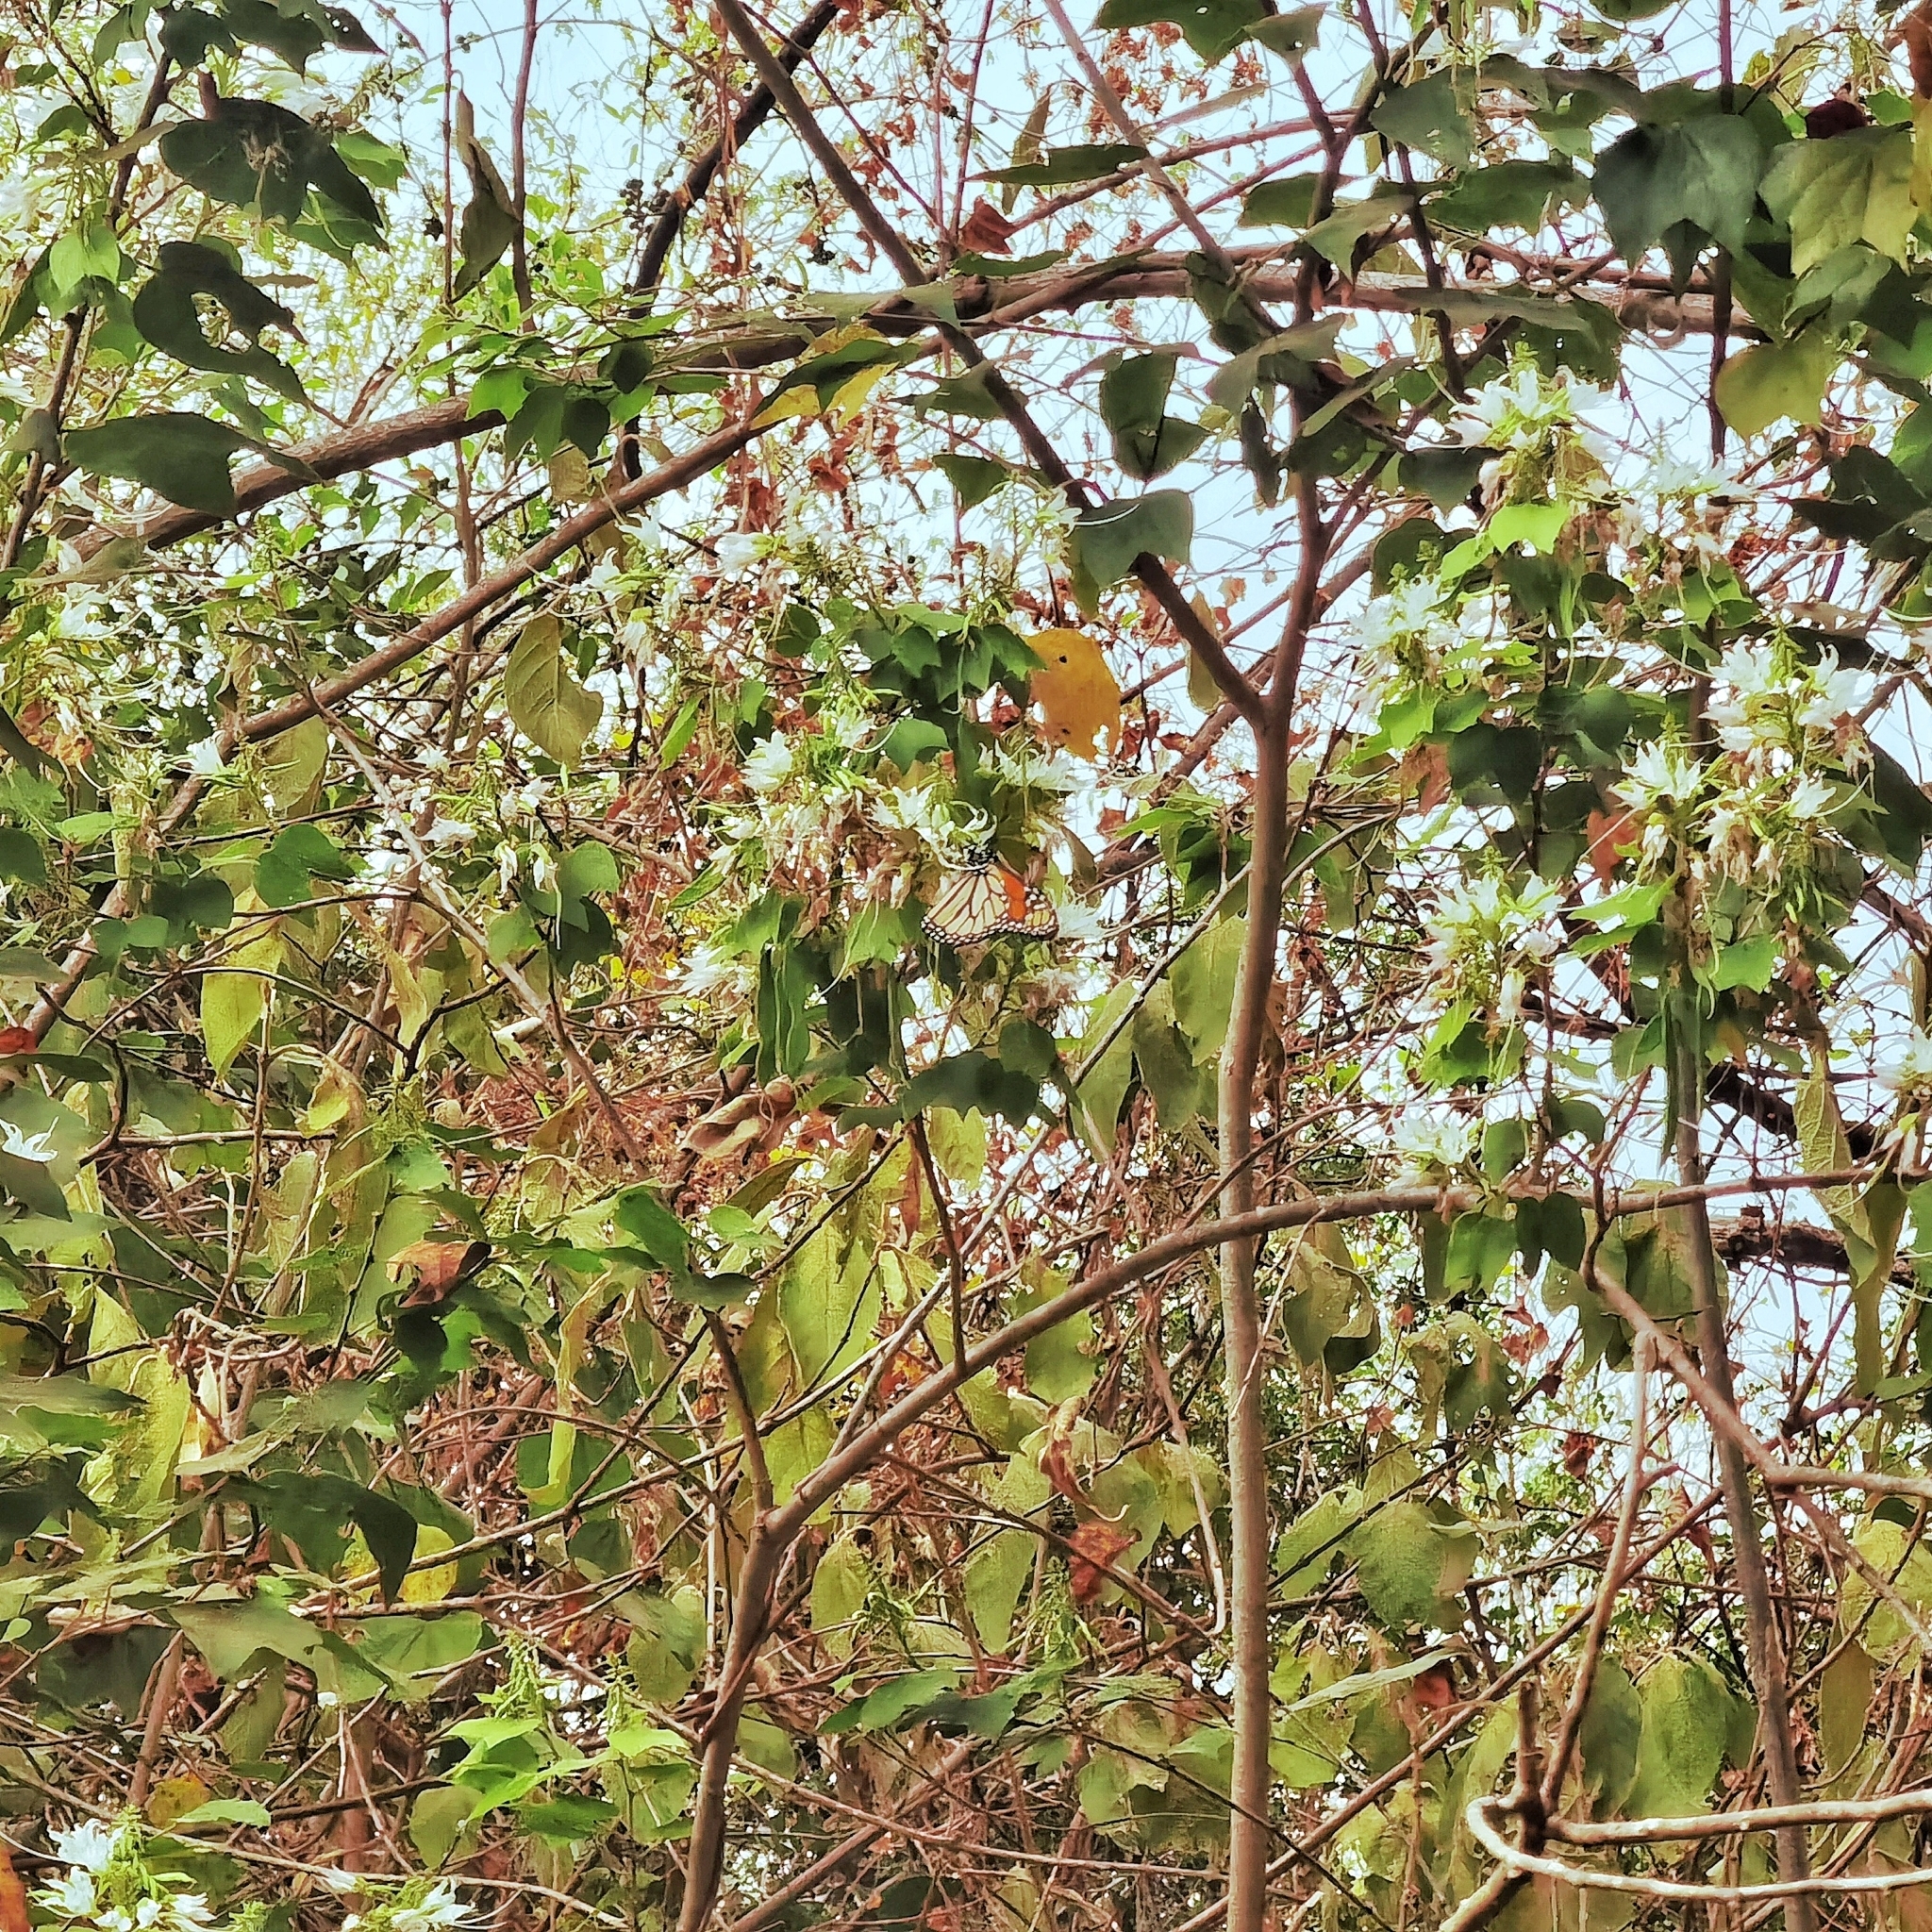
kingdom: Animalia
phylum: Arthropoda
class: Insecta
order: Lepidoptera
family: Nymphalidae
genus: Danaus
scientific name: Danaus plexippus
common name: Monarch
